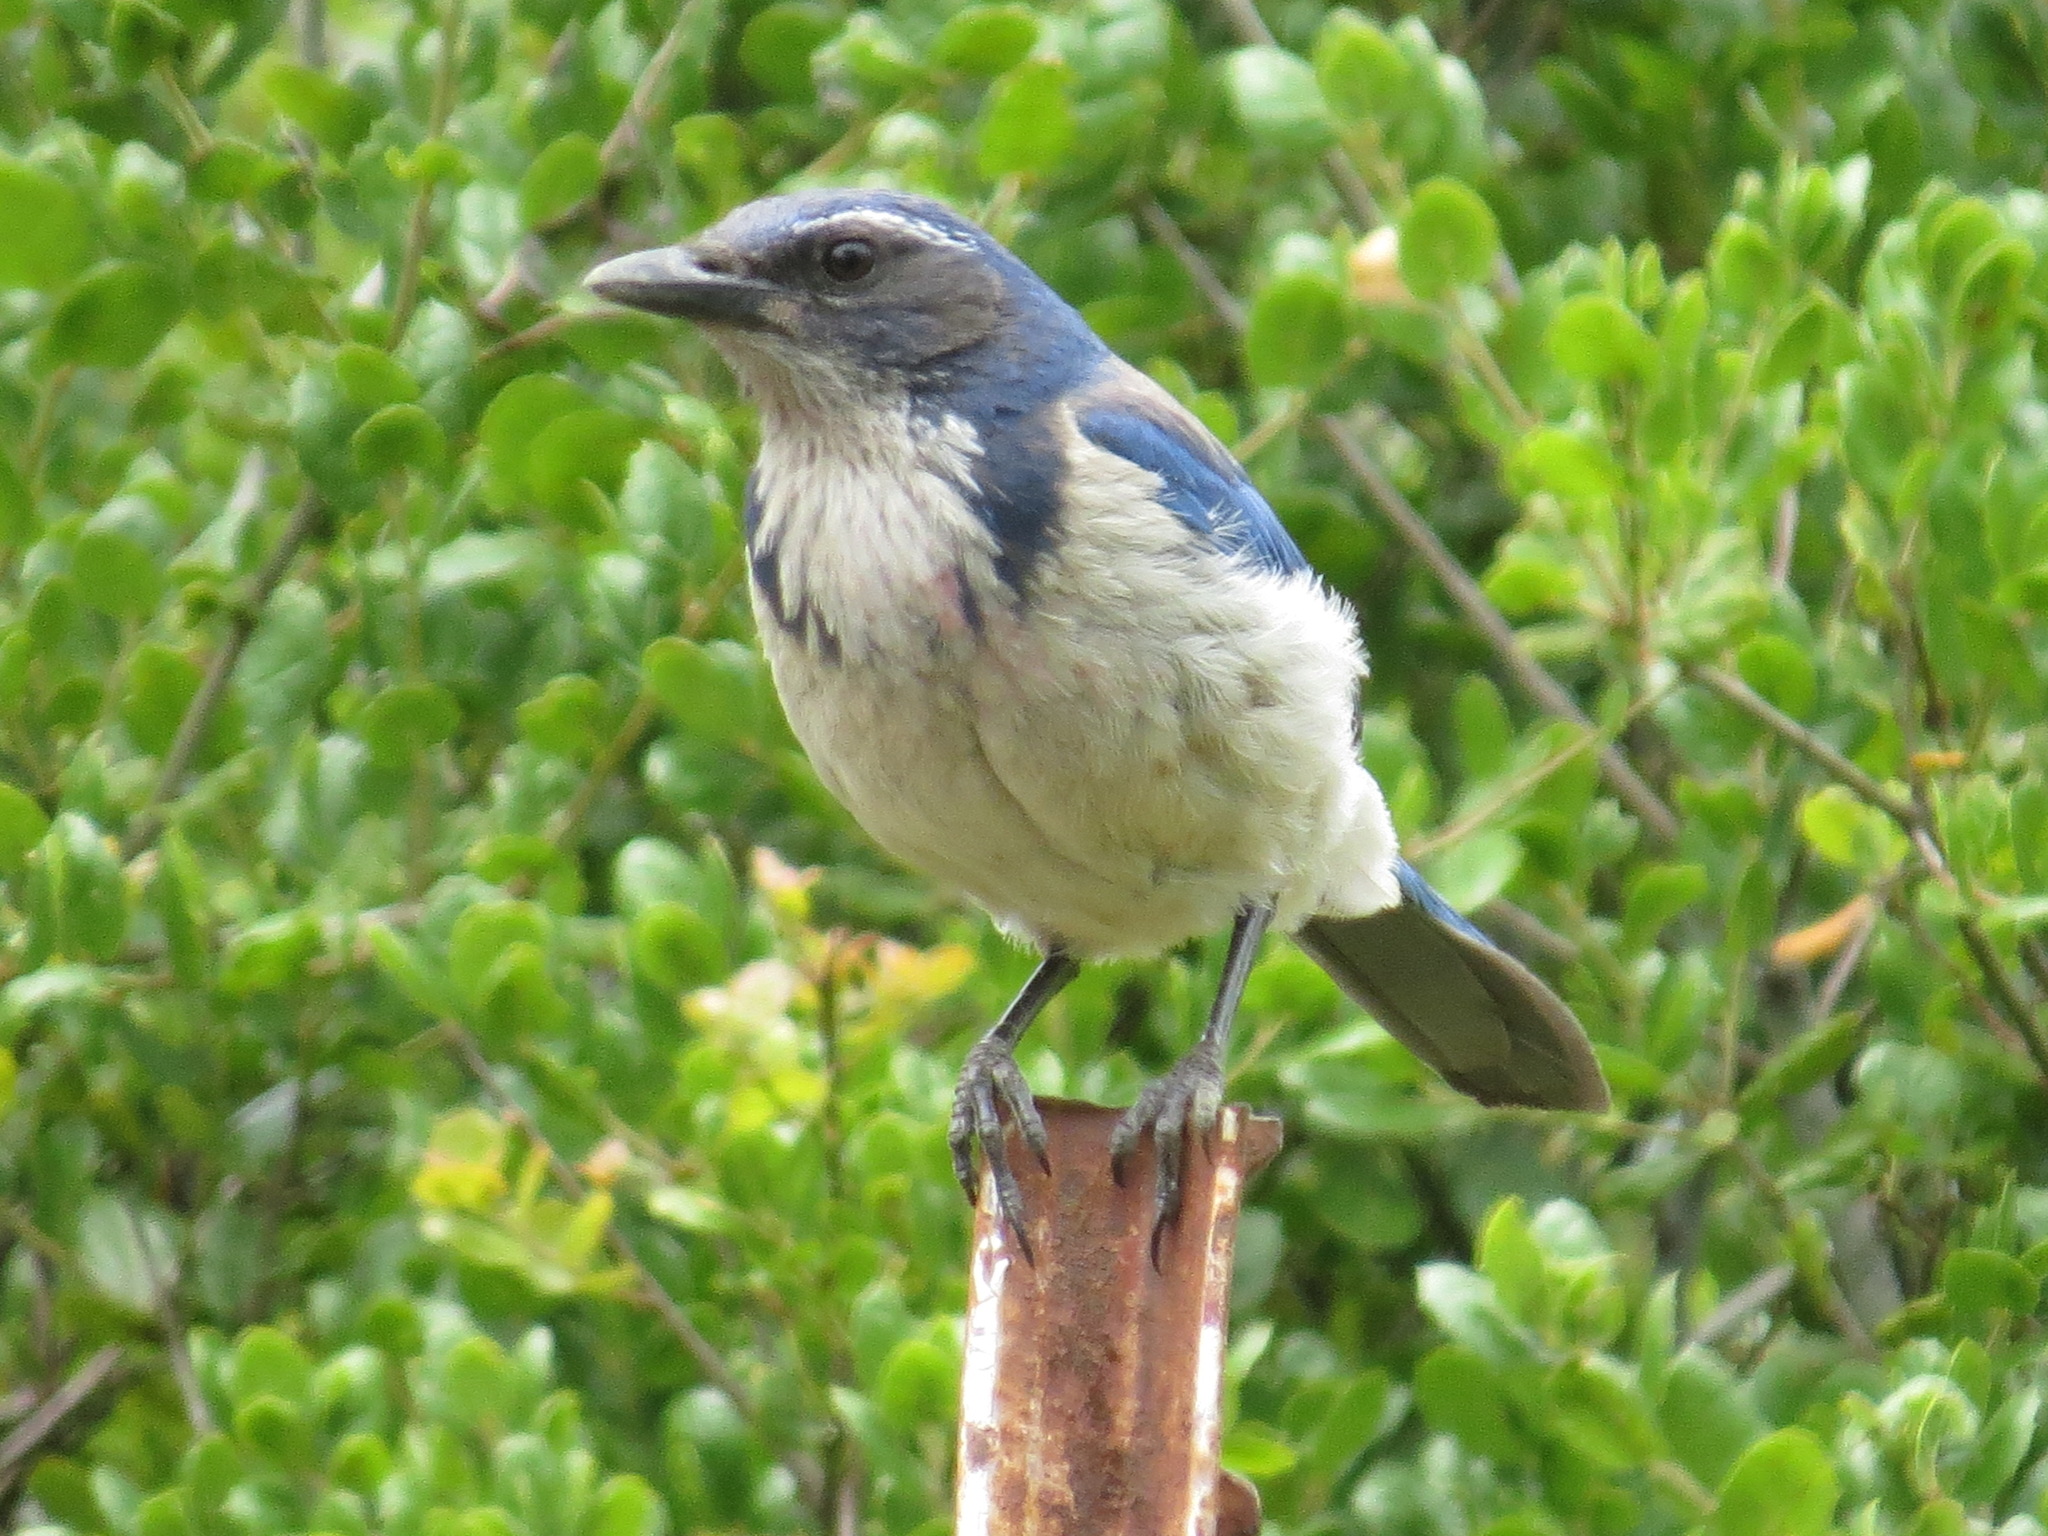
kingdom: Animalia
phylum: Chordata
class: Aves
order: Passeriformes
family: Corvidae
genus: Aphelocoma
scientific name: Aphelocoma californica
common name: California scrub-jay
